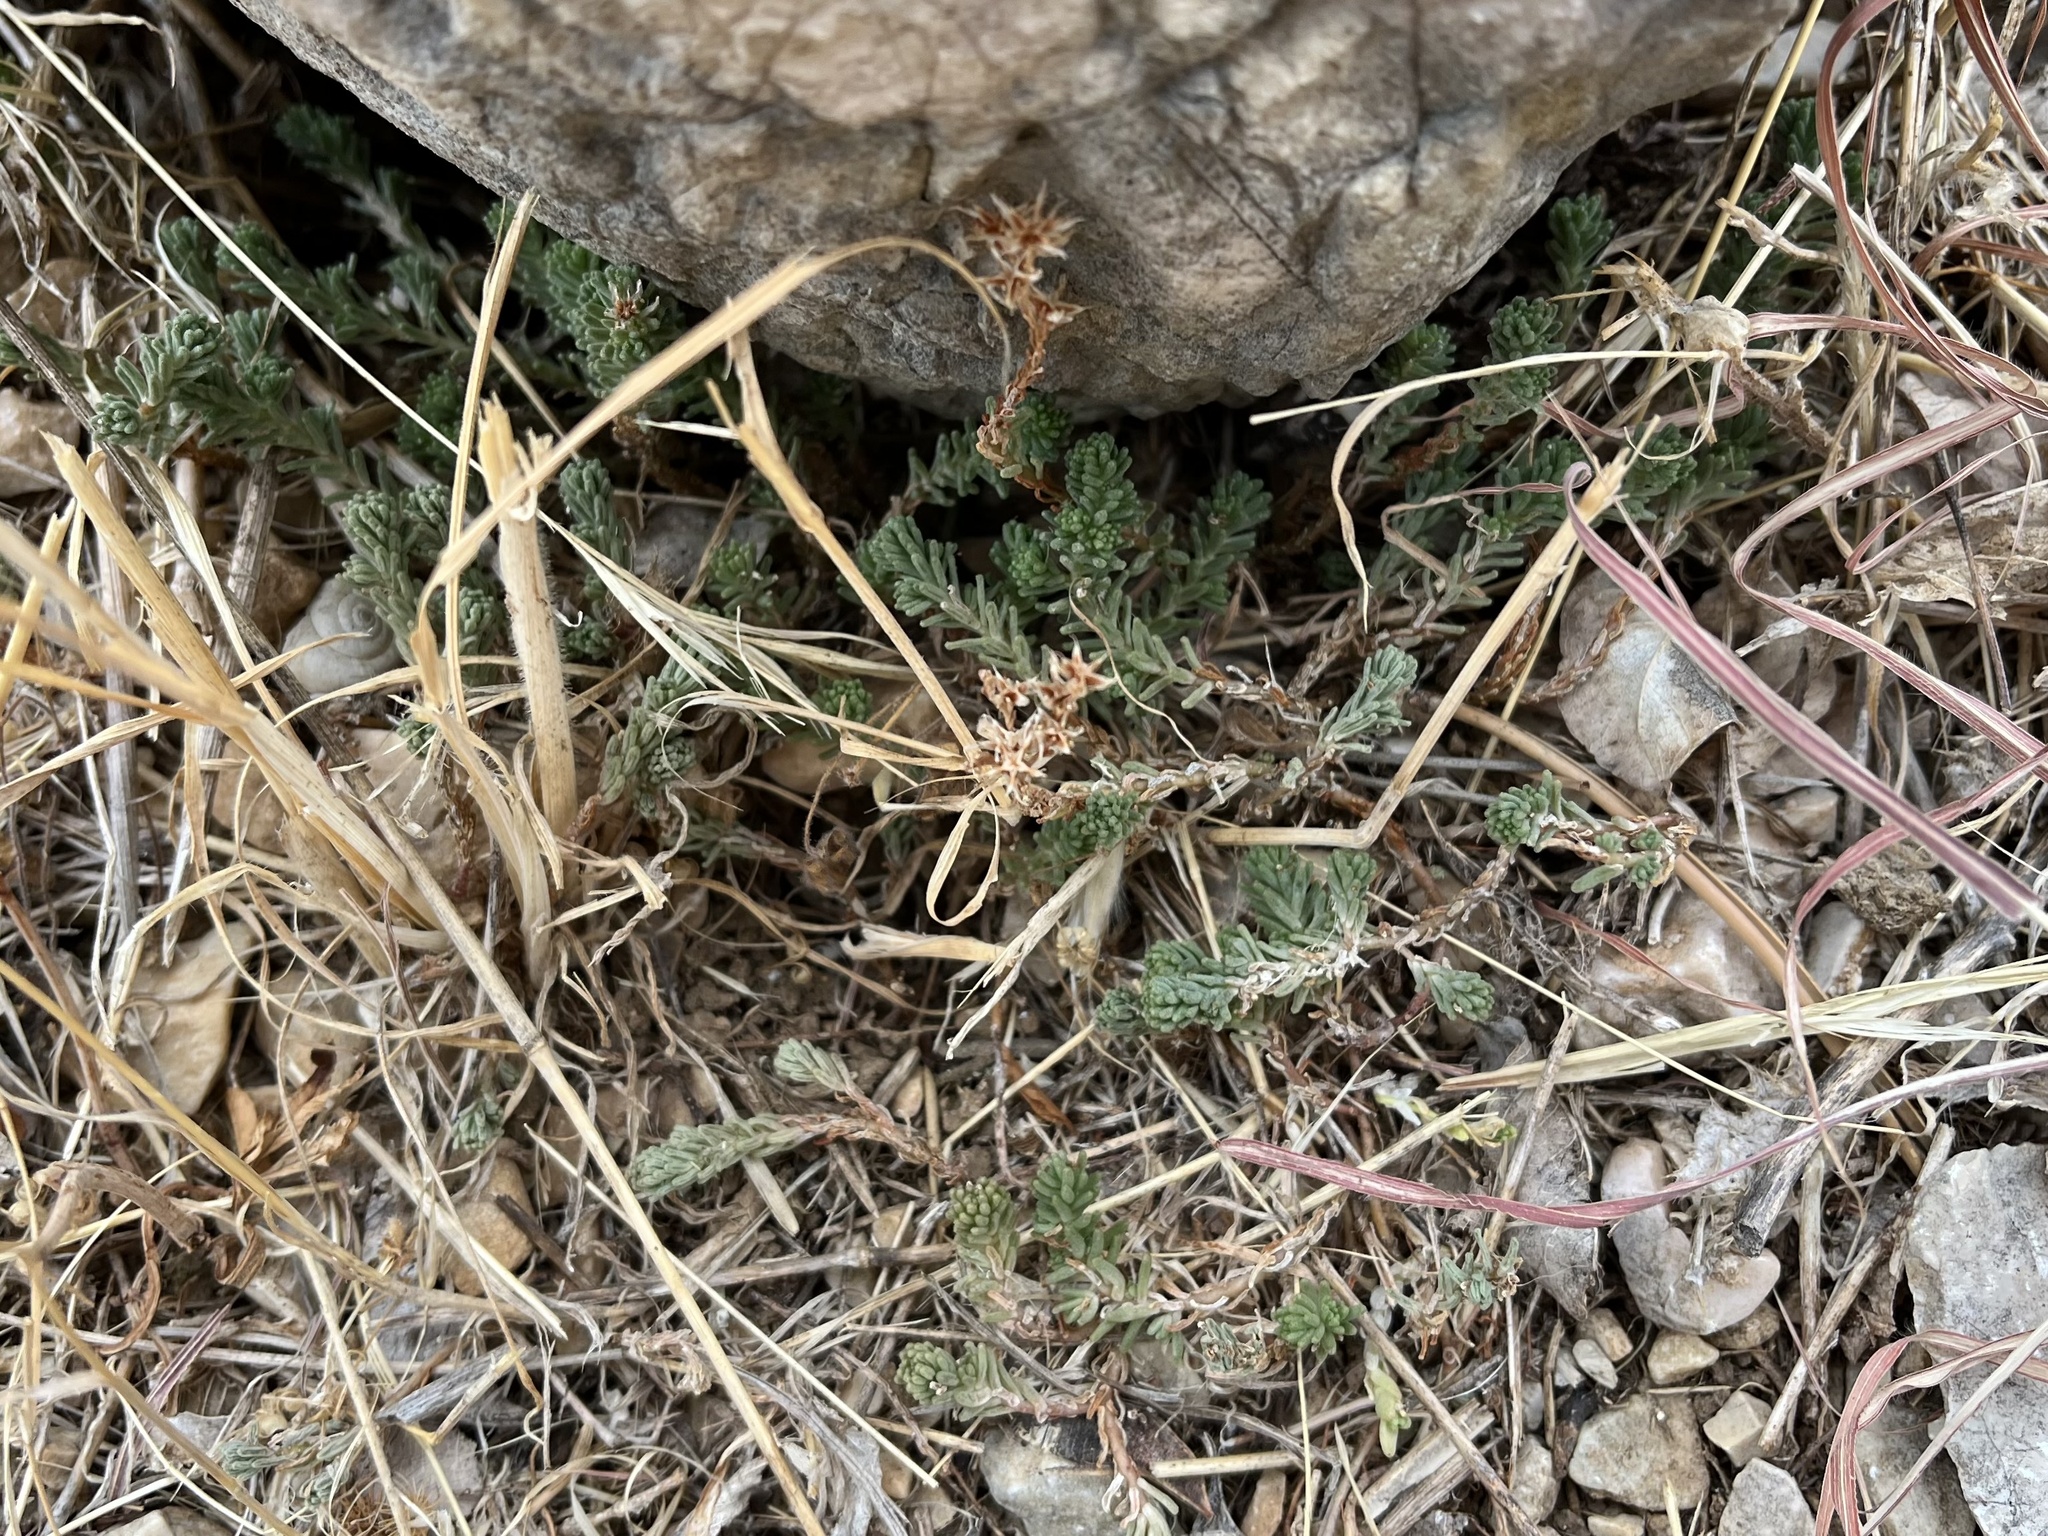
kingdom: Plantae
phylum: Tracheophyta
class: Magnoliopsida
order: Saxifragales
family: Crassulaceae
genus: Sedum
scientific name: Sedum sexangulare
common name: Tasteless stonecrop
